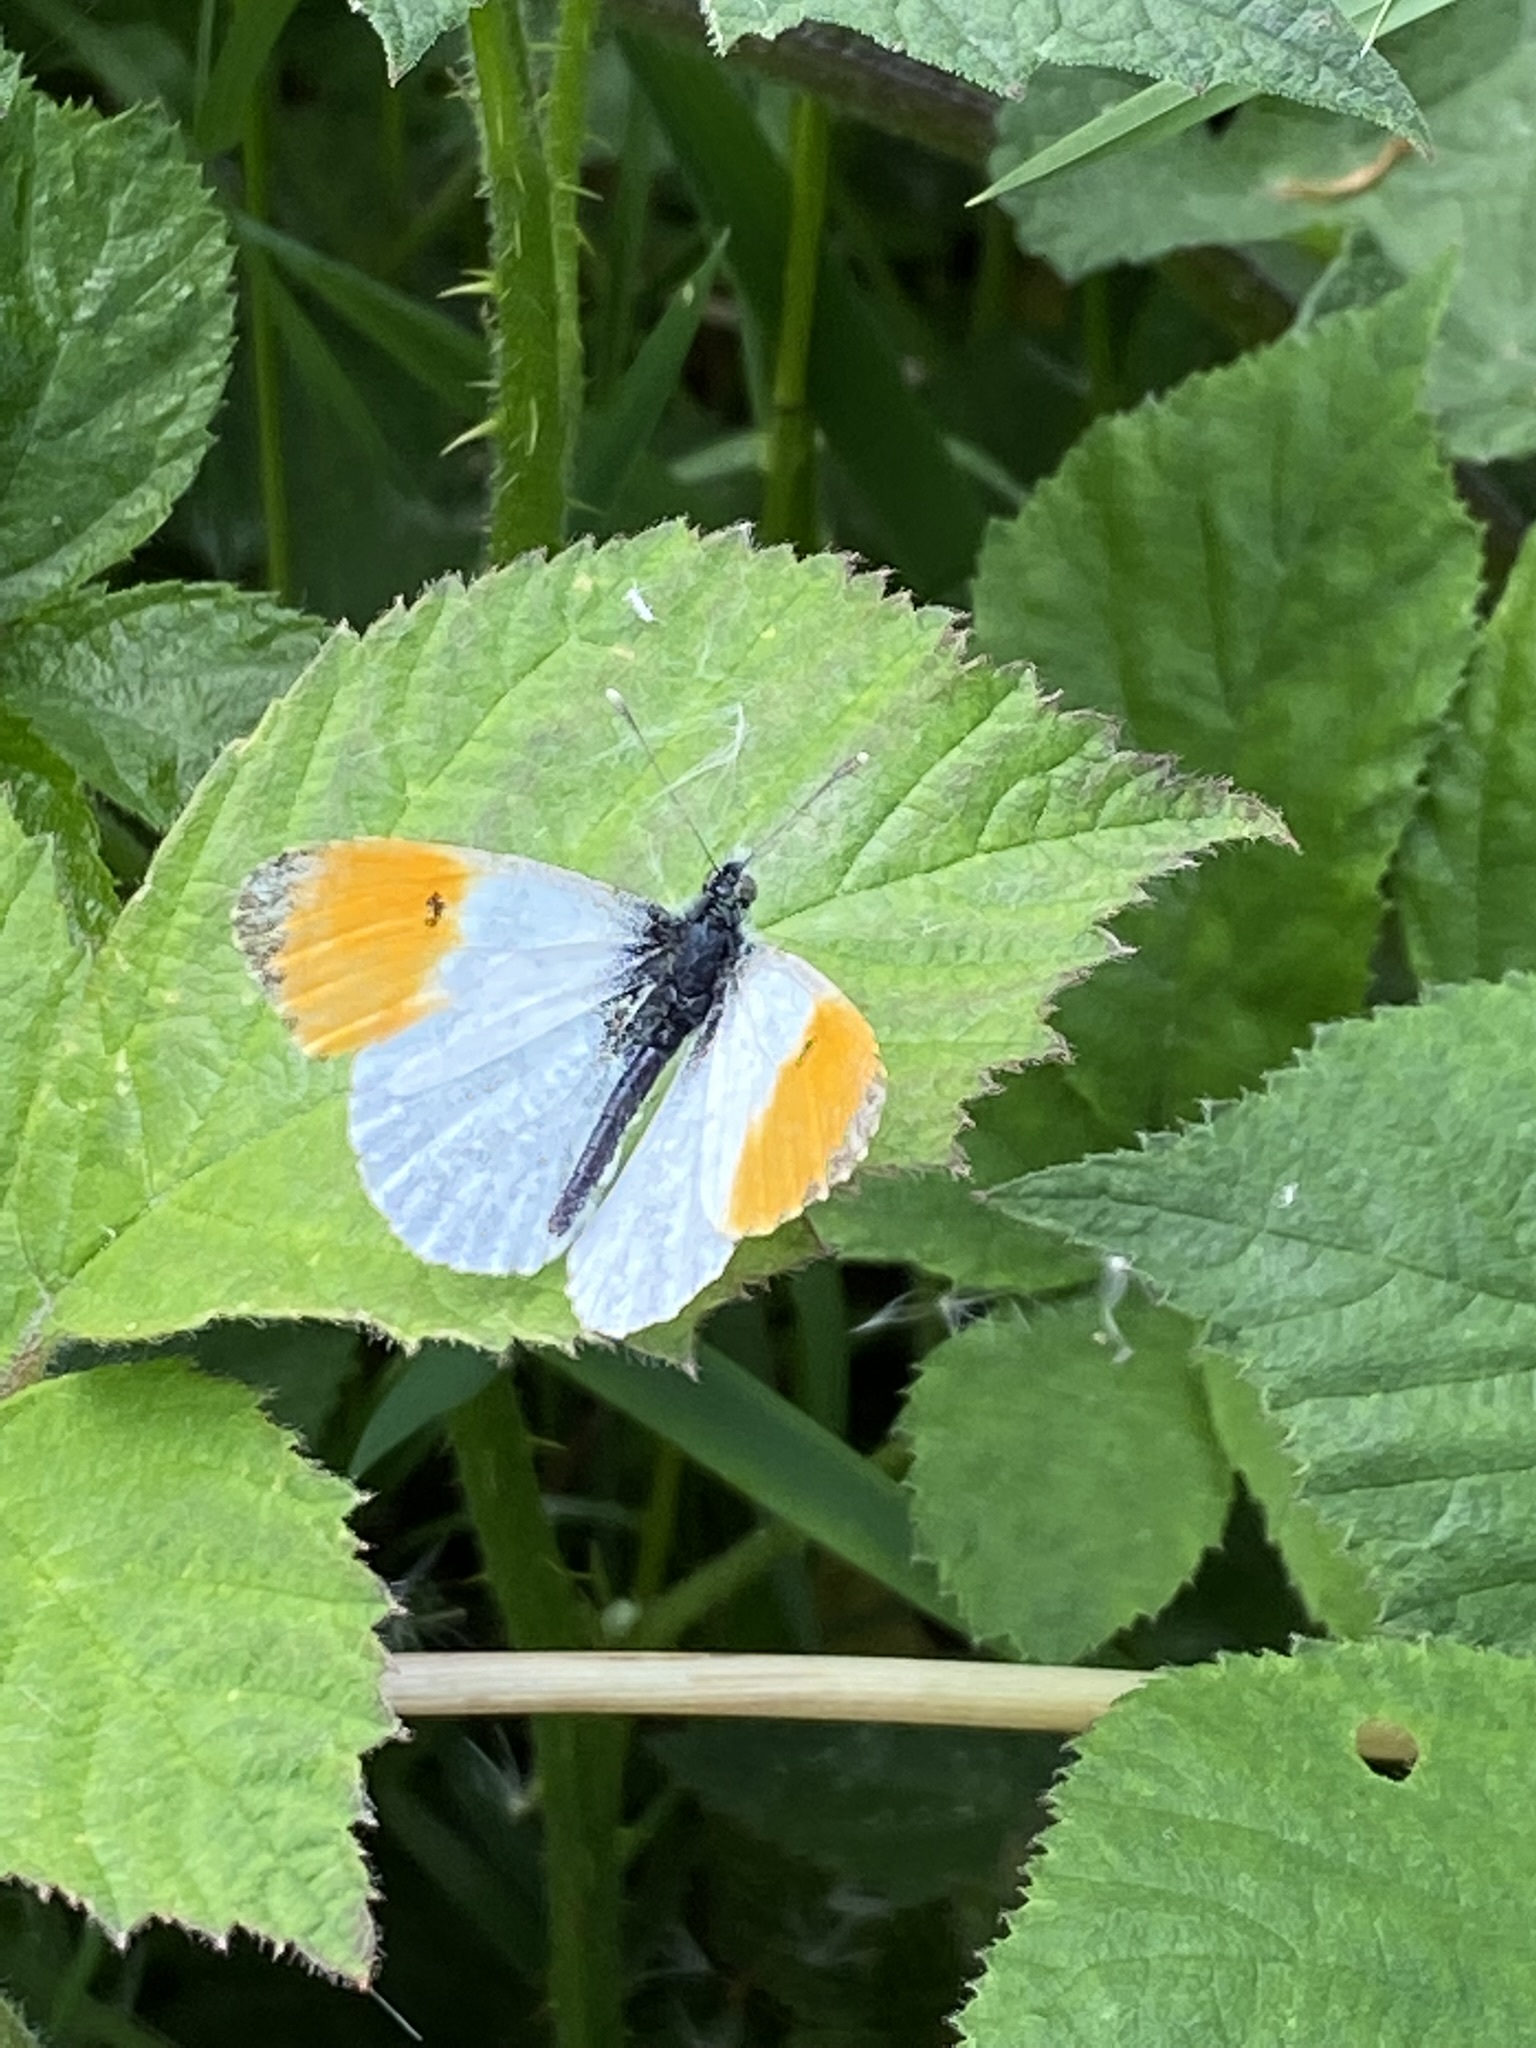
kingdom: Animalia
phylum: Arthropoda
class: Insecta
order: Lepidoptera
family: Pieridae
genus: Anthocharis
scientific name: Anthocharis cardamines
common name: Orange-tip
